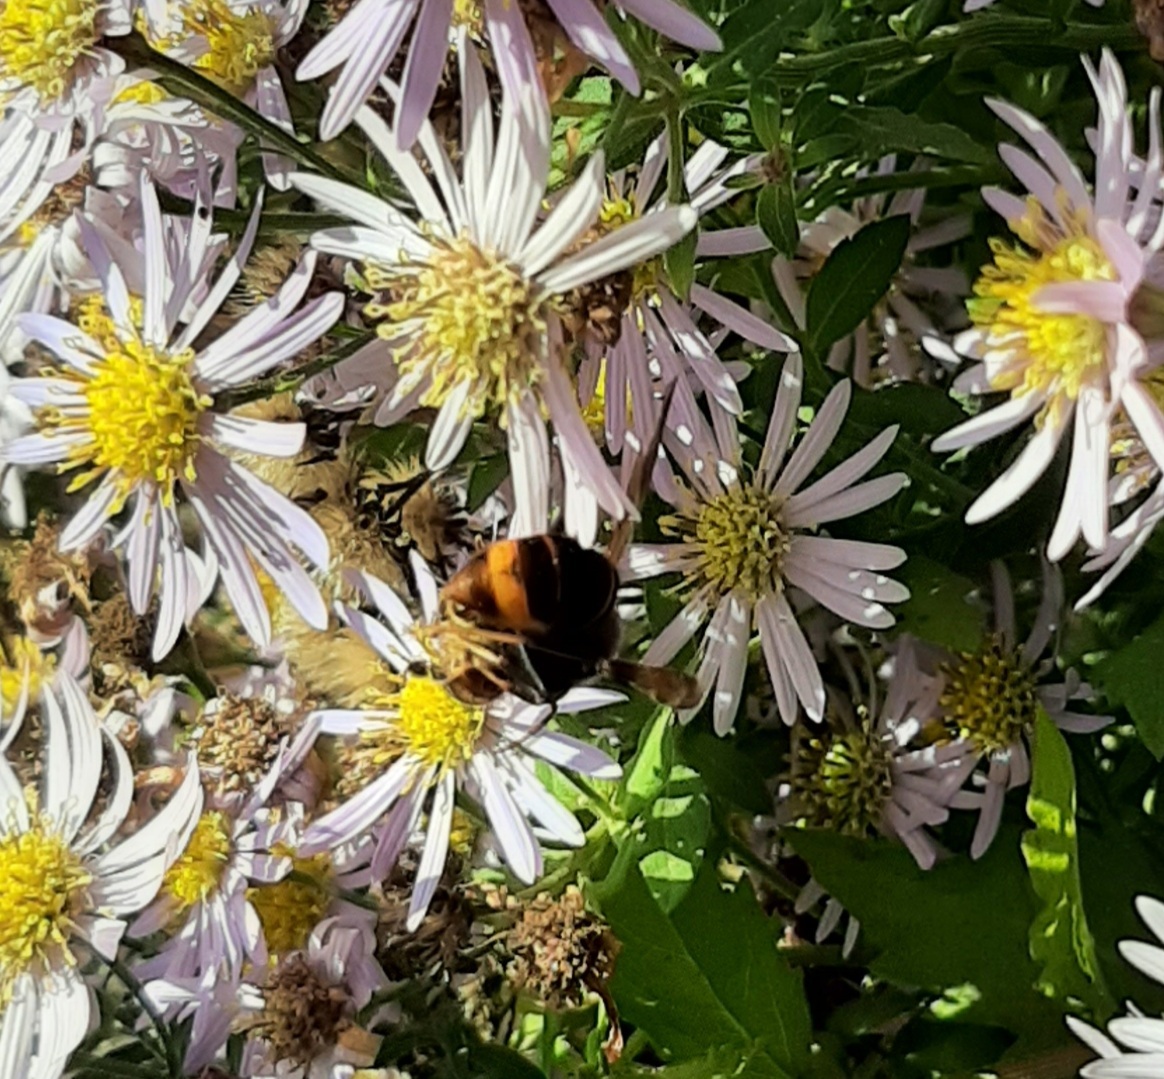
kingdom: Animalia
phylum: Arthropoda
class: Insecta
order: Hymenoptera
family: Vespidae
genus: Vespa
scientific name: Vespa velutina
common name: Asian hornet
